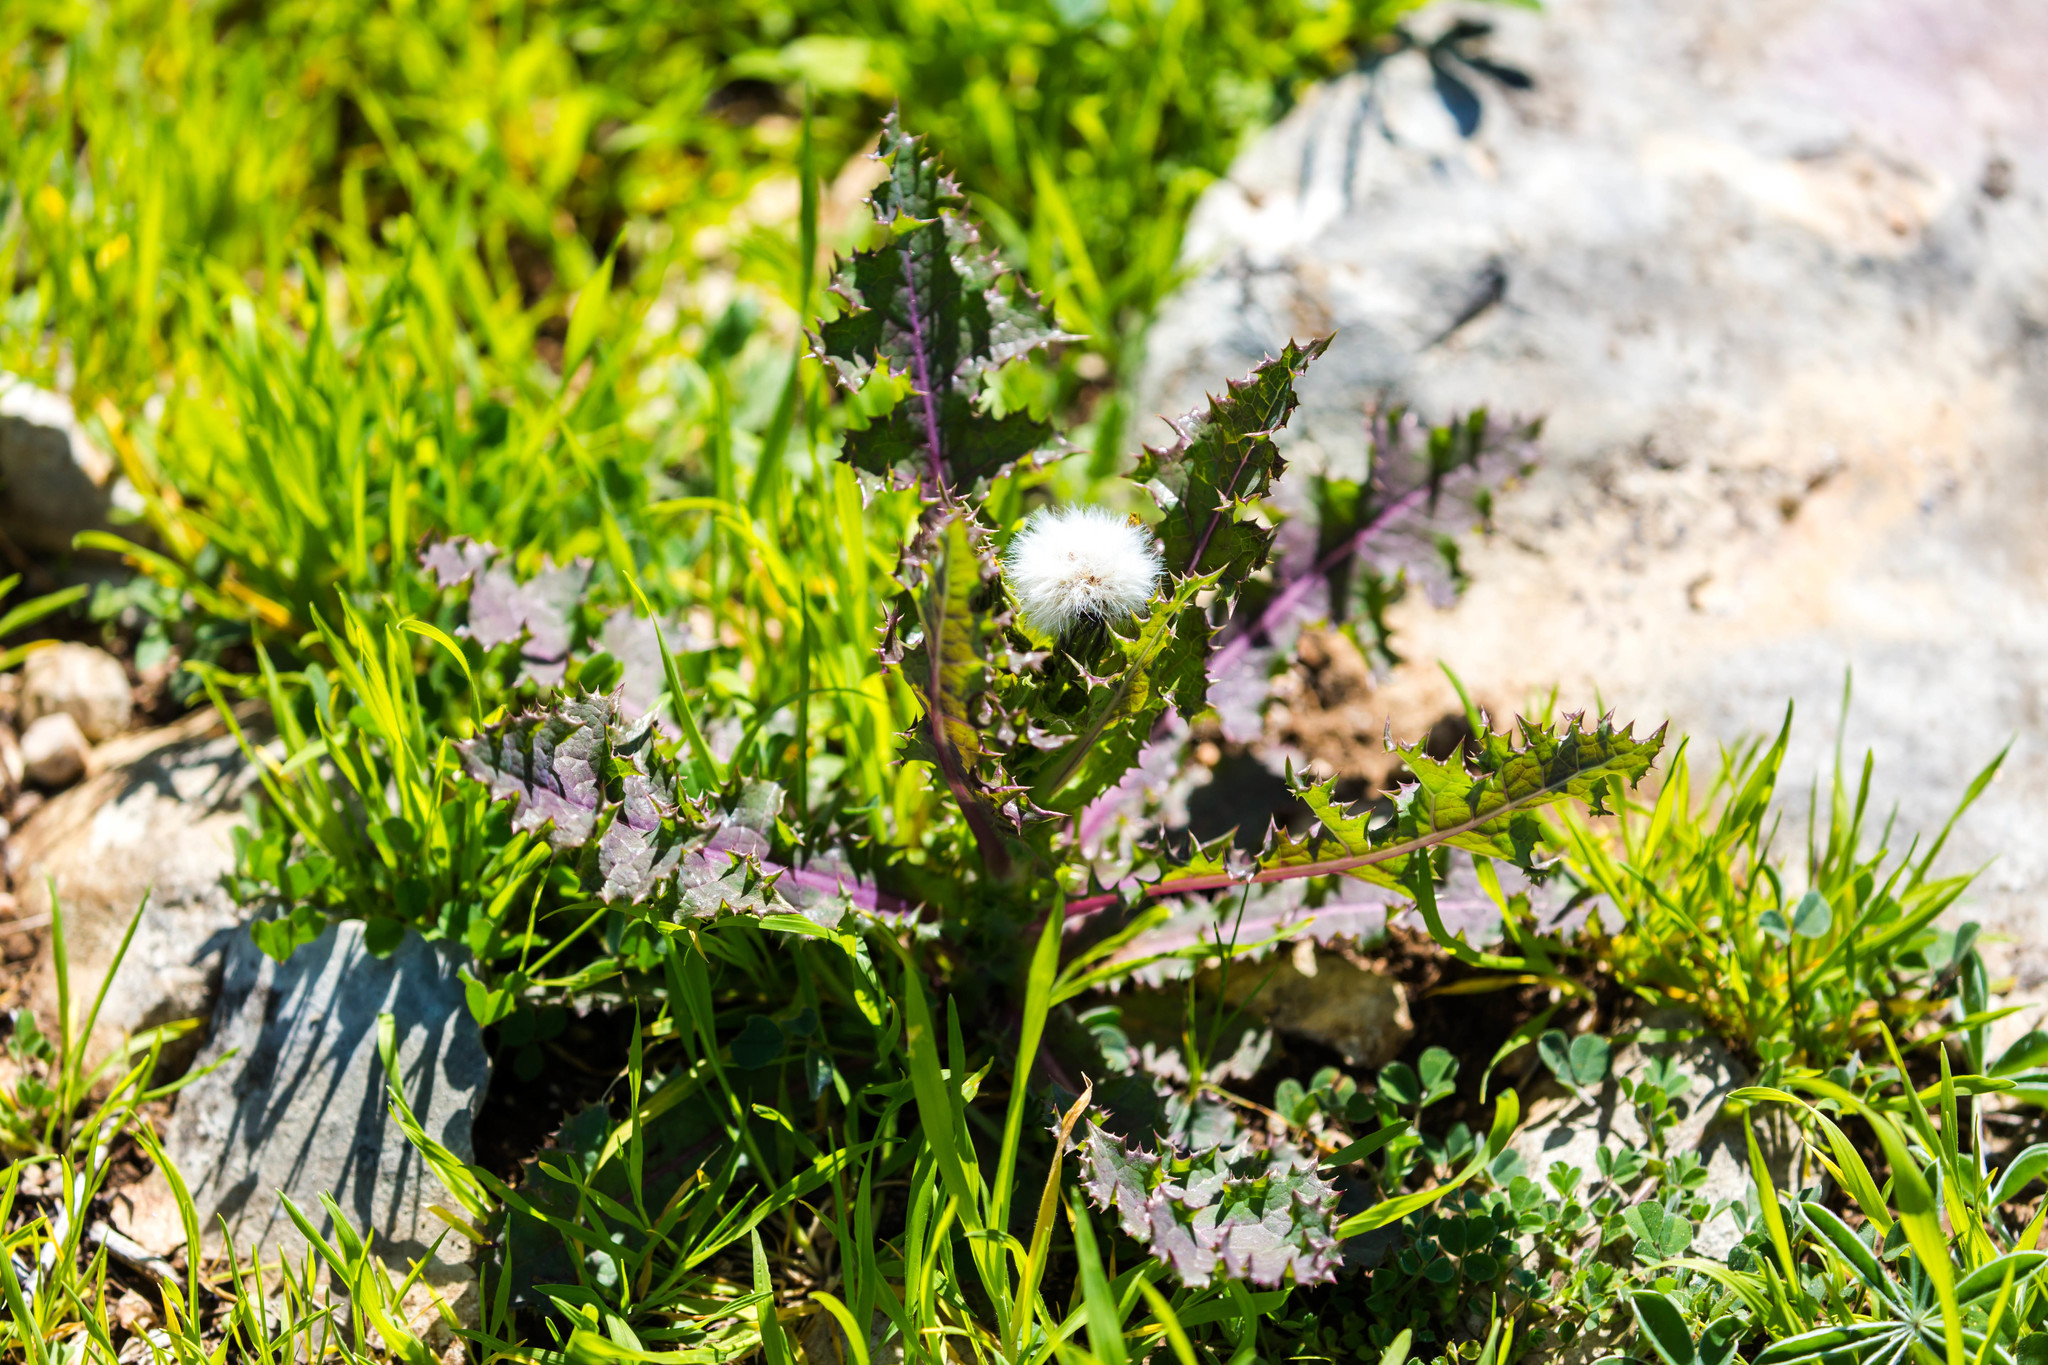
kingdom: Plantae
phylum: Tracheophyta
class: Magnoliopsida
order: Asterales
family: Asteraceae
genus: Sonchus
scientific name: Sonchus asper
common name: Prickly sow-thistle
